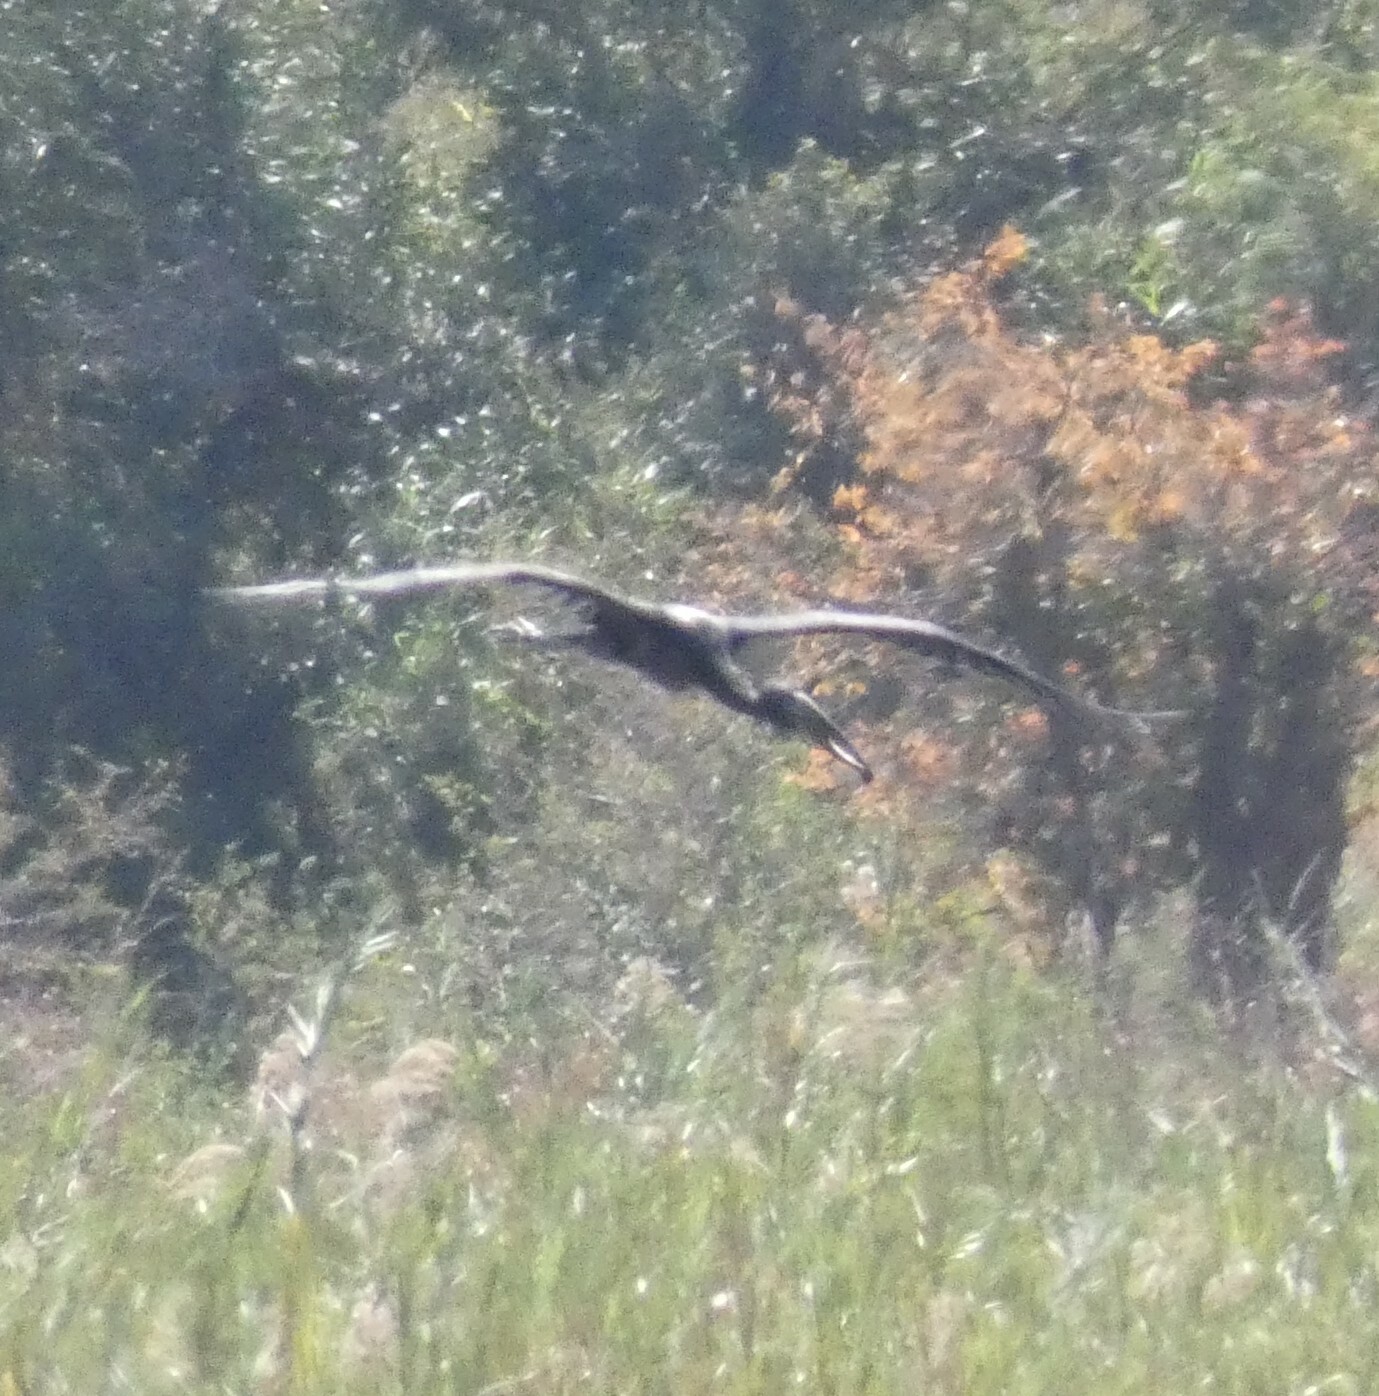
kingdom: Animalia
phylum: Chordata
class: Aves
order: Ciconiiformes
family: Ciconiidae
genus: Anastomus
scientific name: Anastomus lamelligerus
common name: African openbill
